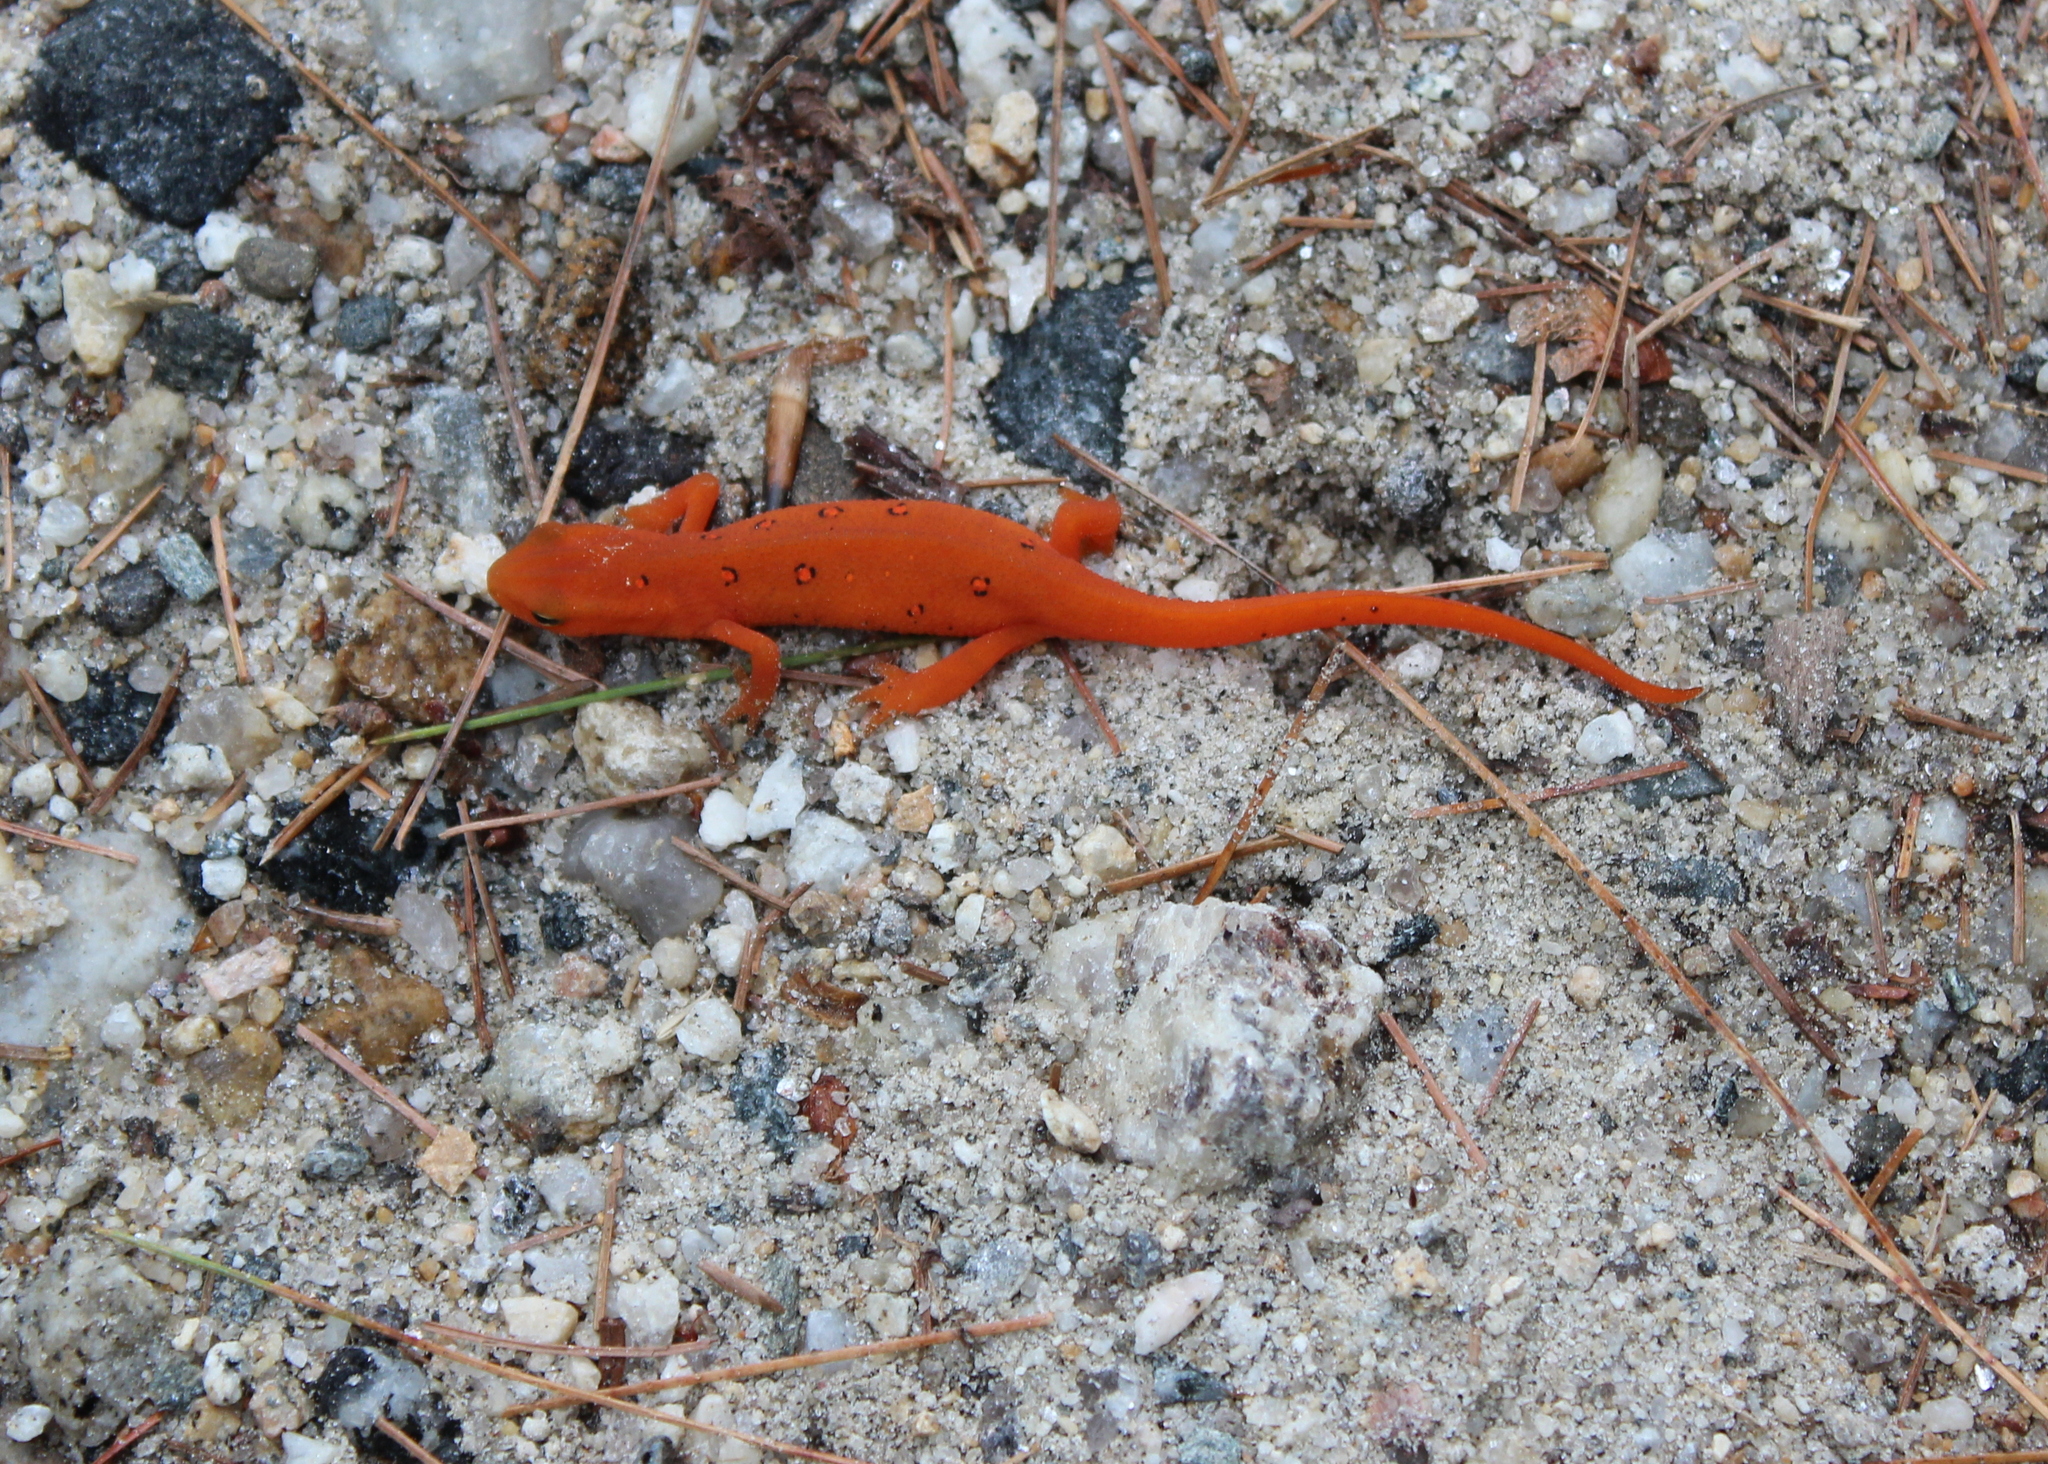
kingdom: Animalia
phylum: Chordata
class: Amphibia
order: Caudata
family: Salamandridae
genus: Notophthalmus
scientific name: Notophthalmus viridescens
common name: Eastern newt
